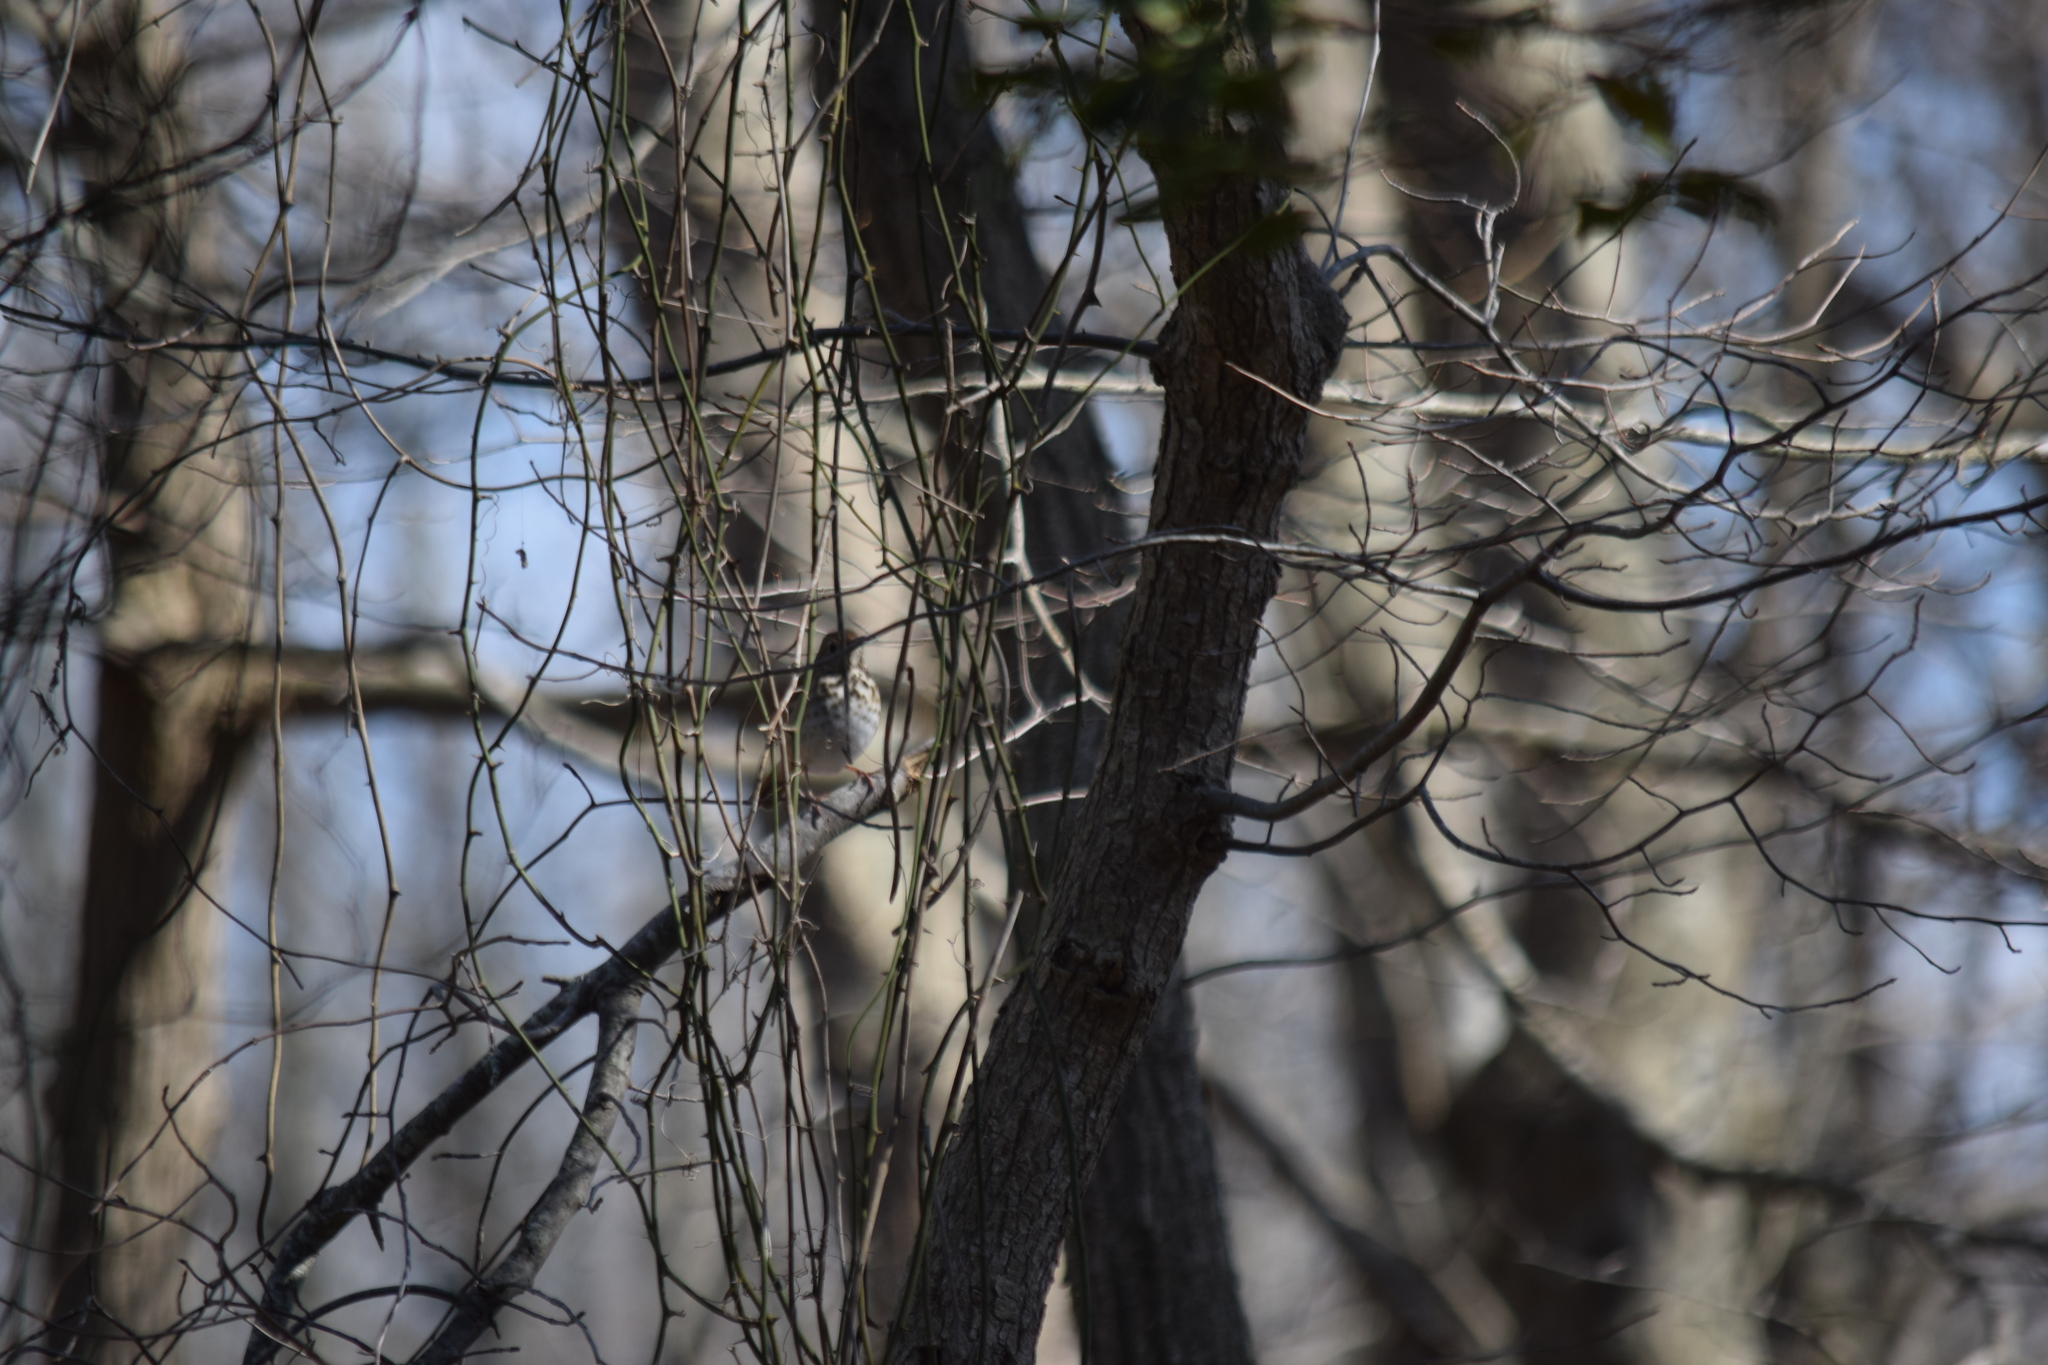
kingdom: Animalia
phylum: Chordata
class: Aves
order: Passeriformes
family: Turdidae
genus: Catharus
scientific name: Catharus guttatus
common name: Hermit thrush
